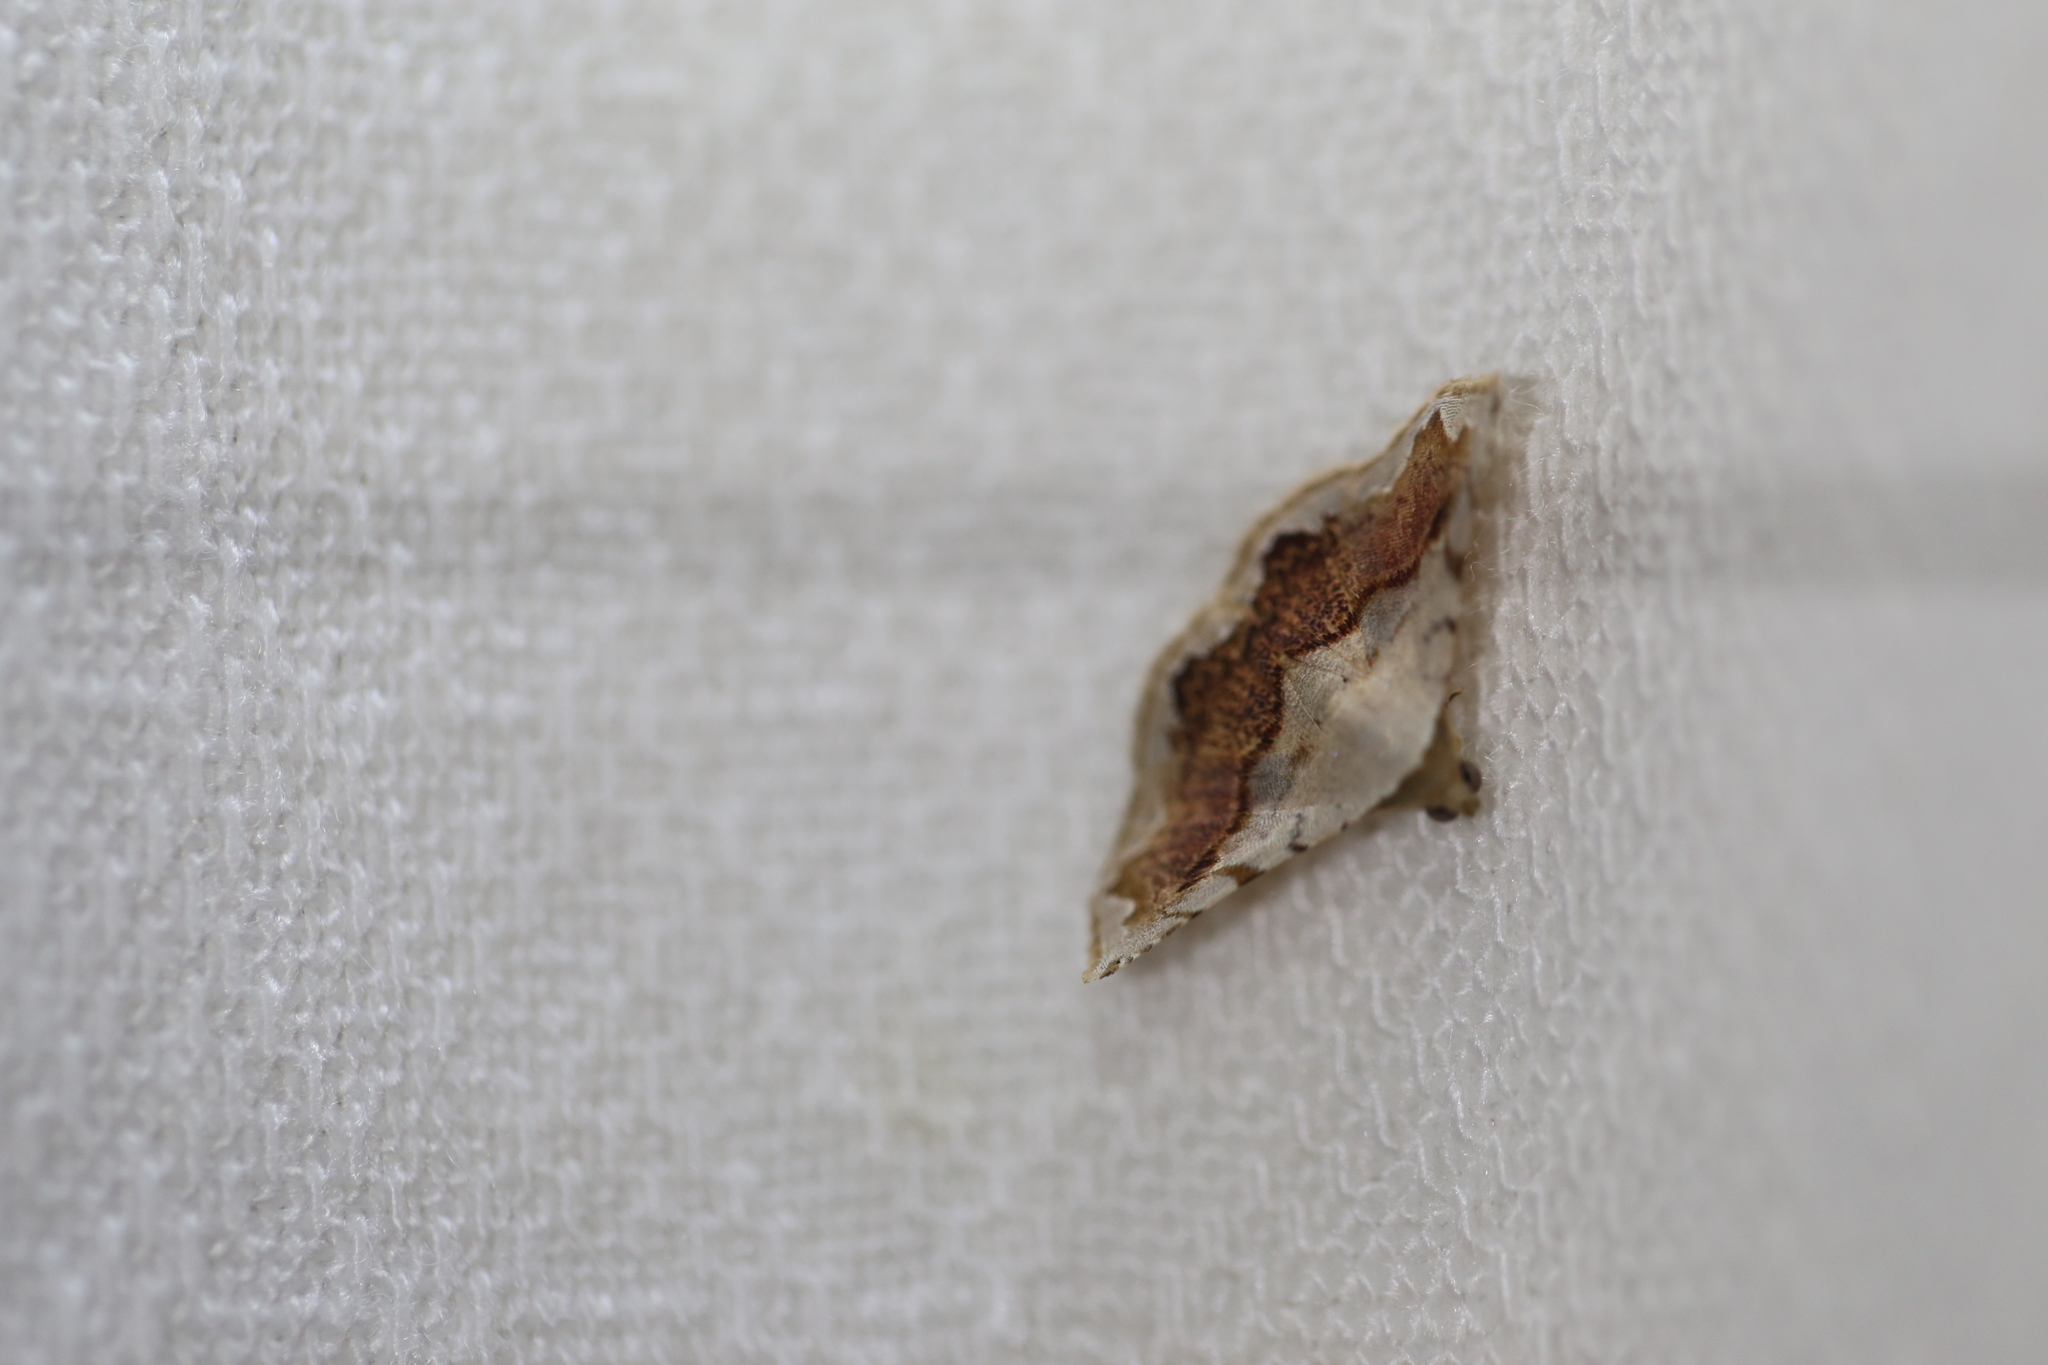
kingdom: Animalia
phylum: Arthropoda
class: Insecta
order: Lepidoptera
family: Noctuidae
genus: Eublemma
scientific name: Eublemma
